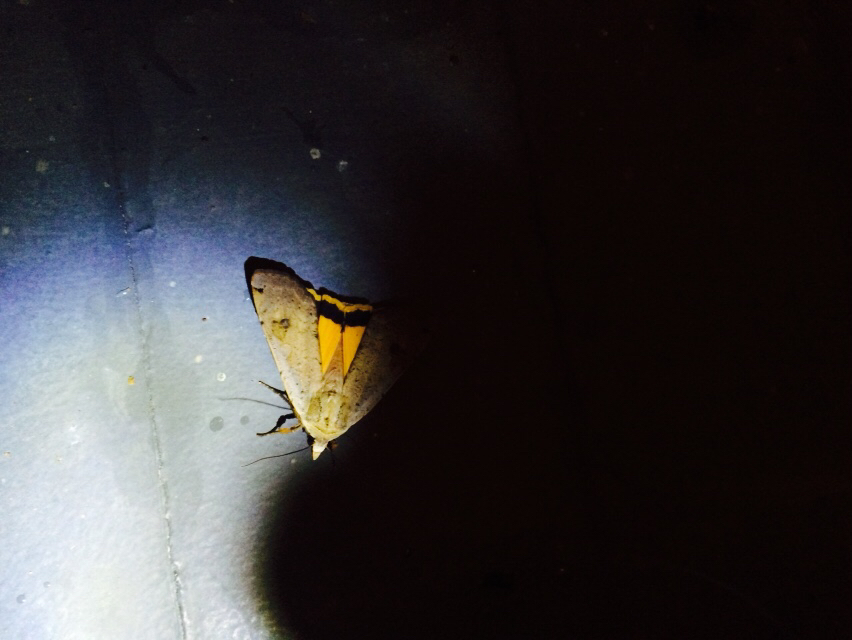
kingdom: Animalia
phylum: Arthropoda
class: Insecta
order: Lepidoptera
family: Noctuidae
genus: Noctua
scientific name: Noctua pronuba
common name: Large yellow underwing
